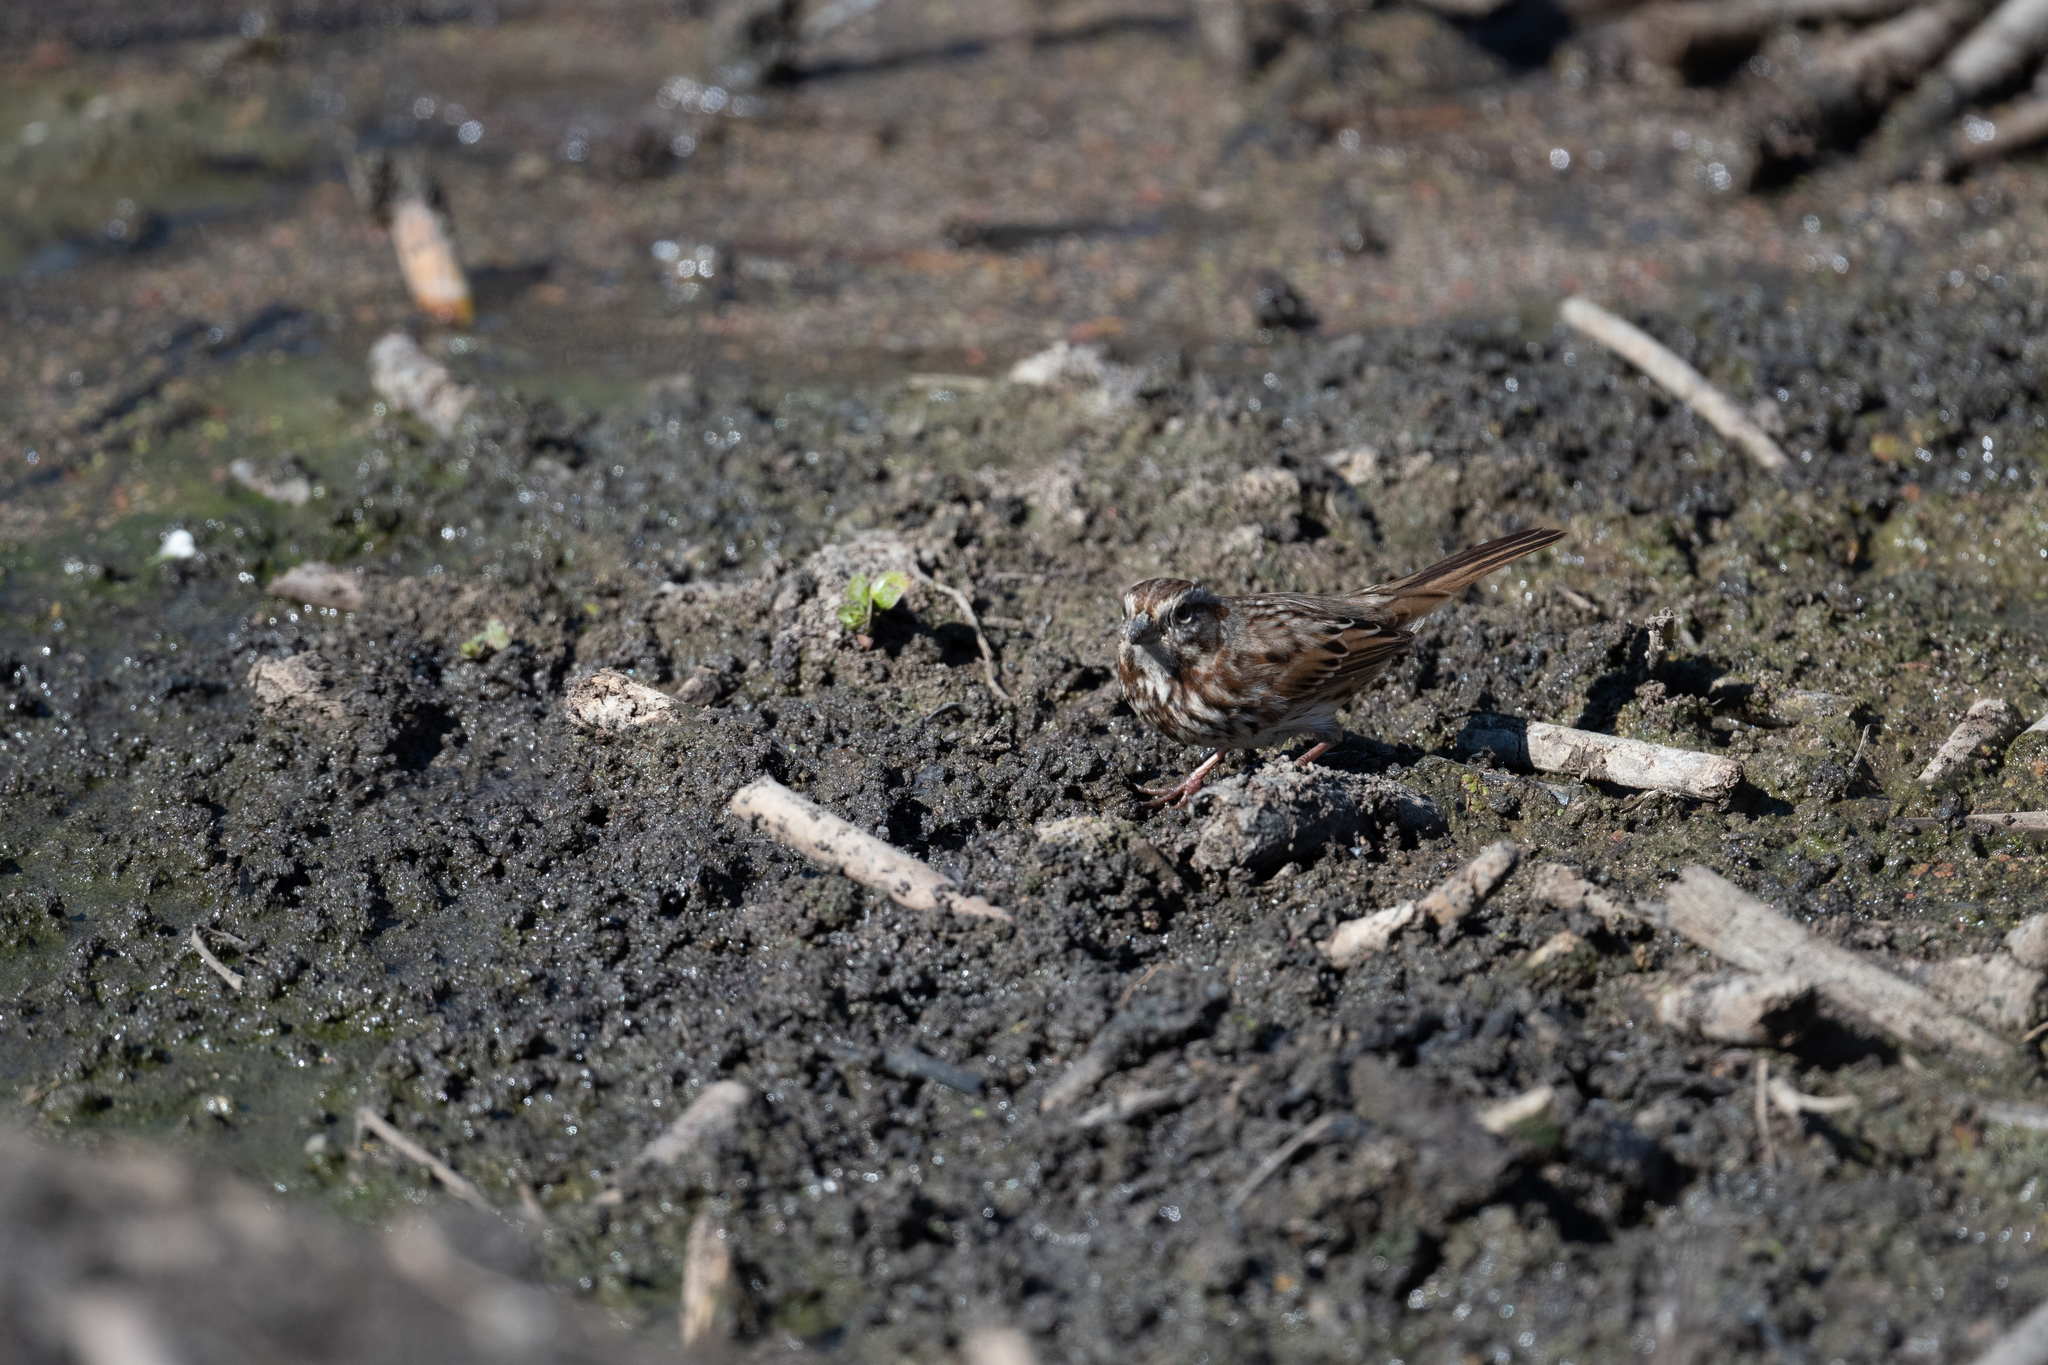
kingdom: Animalia
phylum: Chordata
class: Aves
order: Passeriformes
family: Passerellidae
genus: Melospiza
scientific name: Melospiza melodia
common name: Song sparrow
